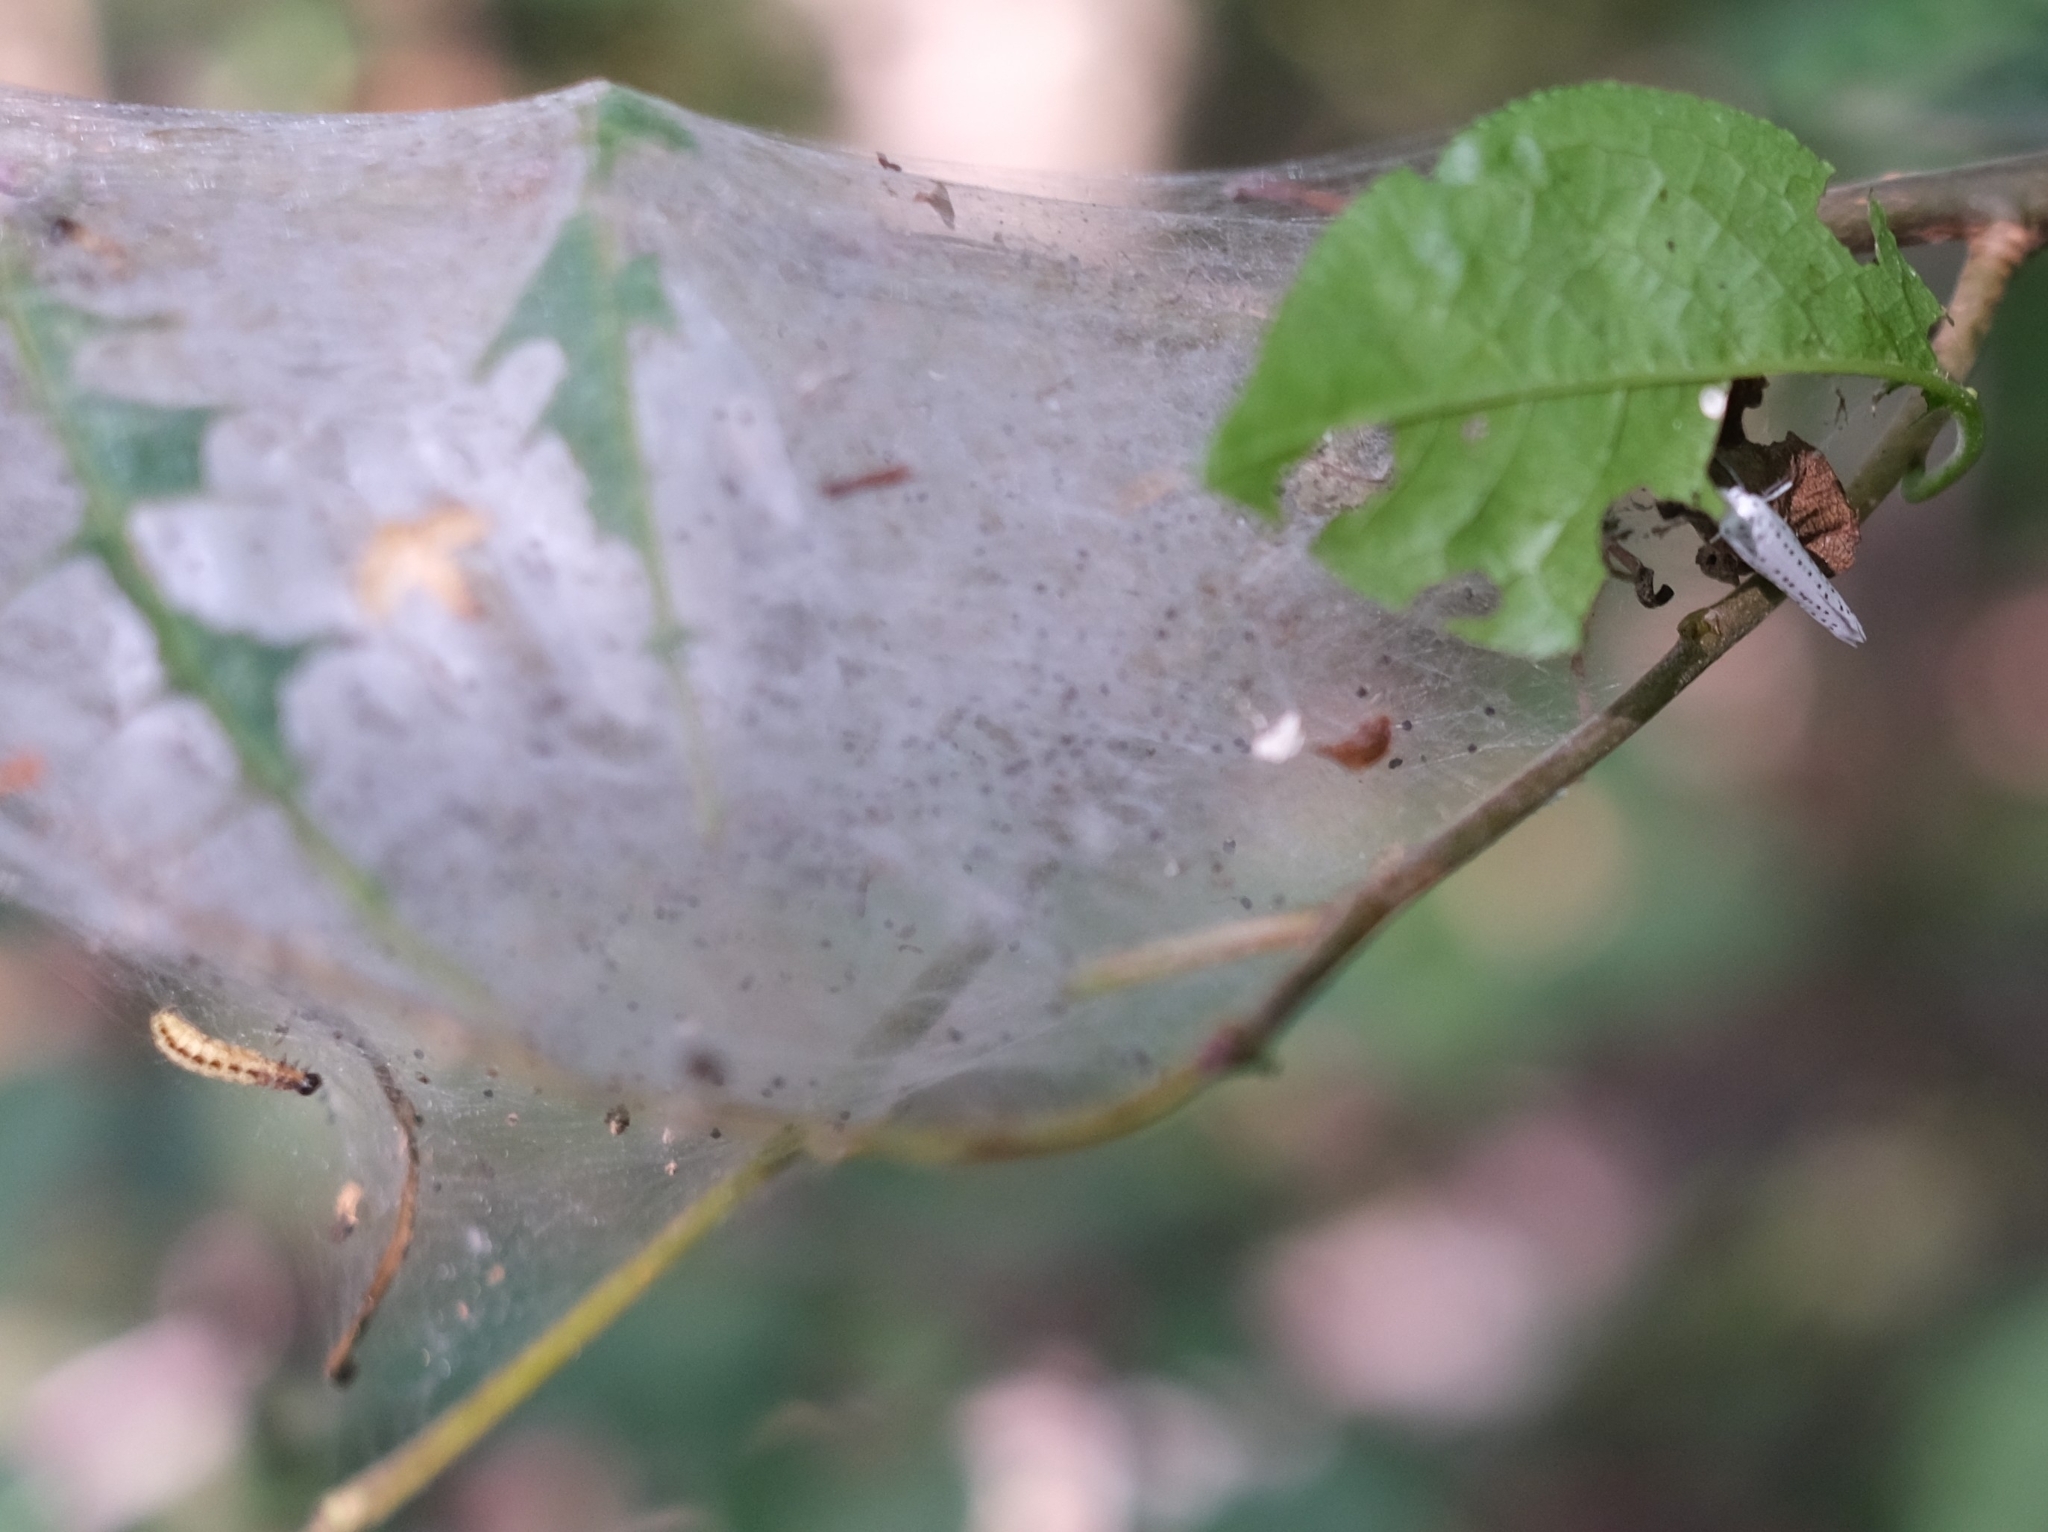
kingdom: Animalia
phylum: Arthropoda
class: Insecta
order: Lepidoptera
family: Yponomeutidae
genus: Yponomeuta
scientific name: Yponomeuta evonymella
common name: Bird-cherry ermine
